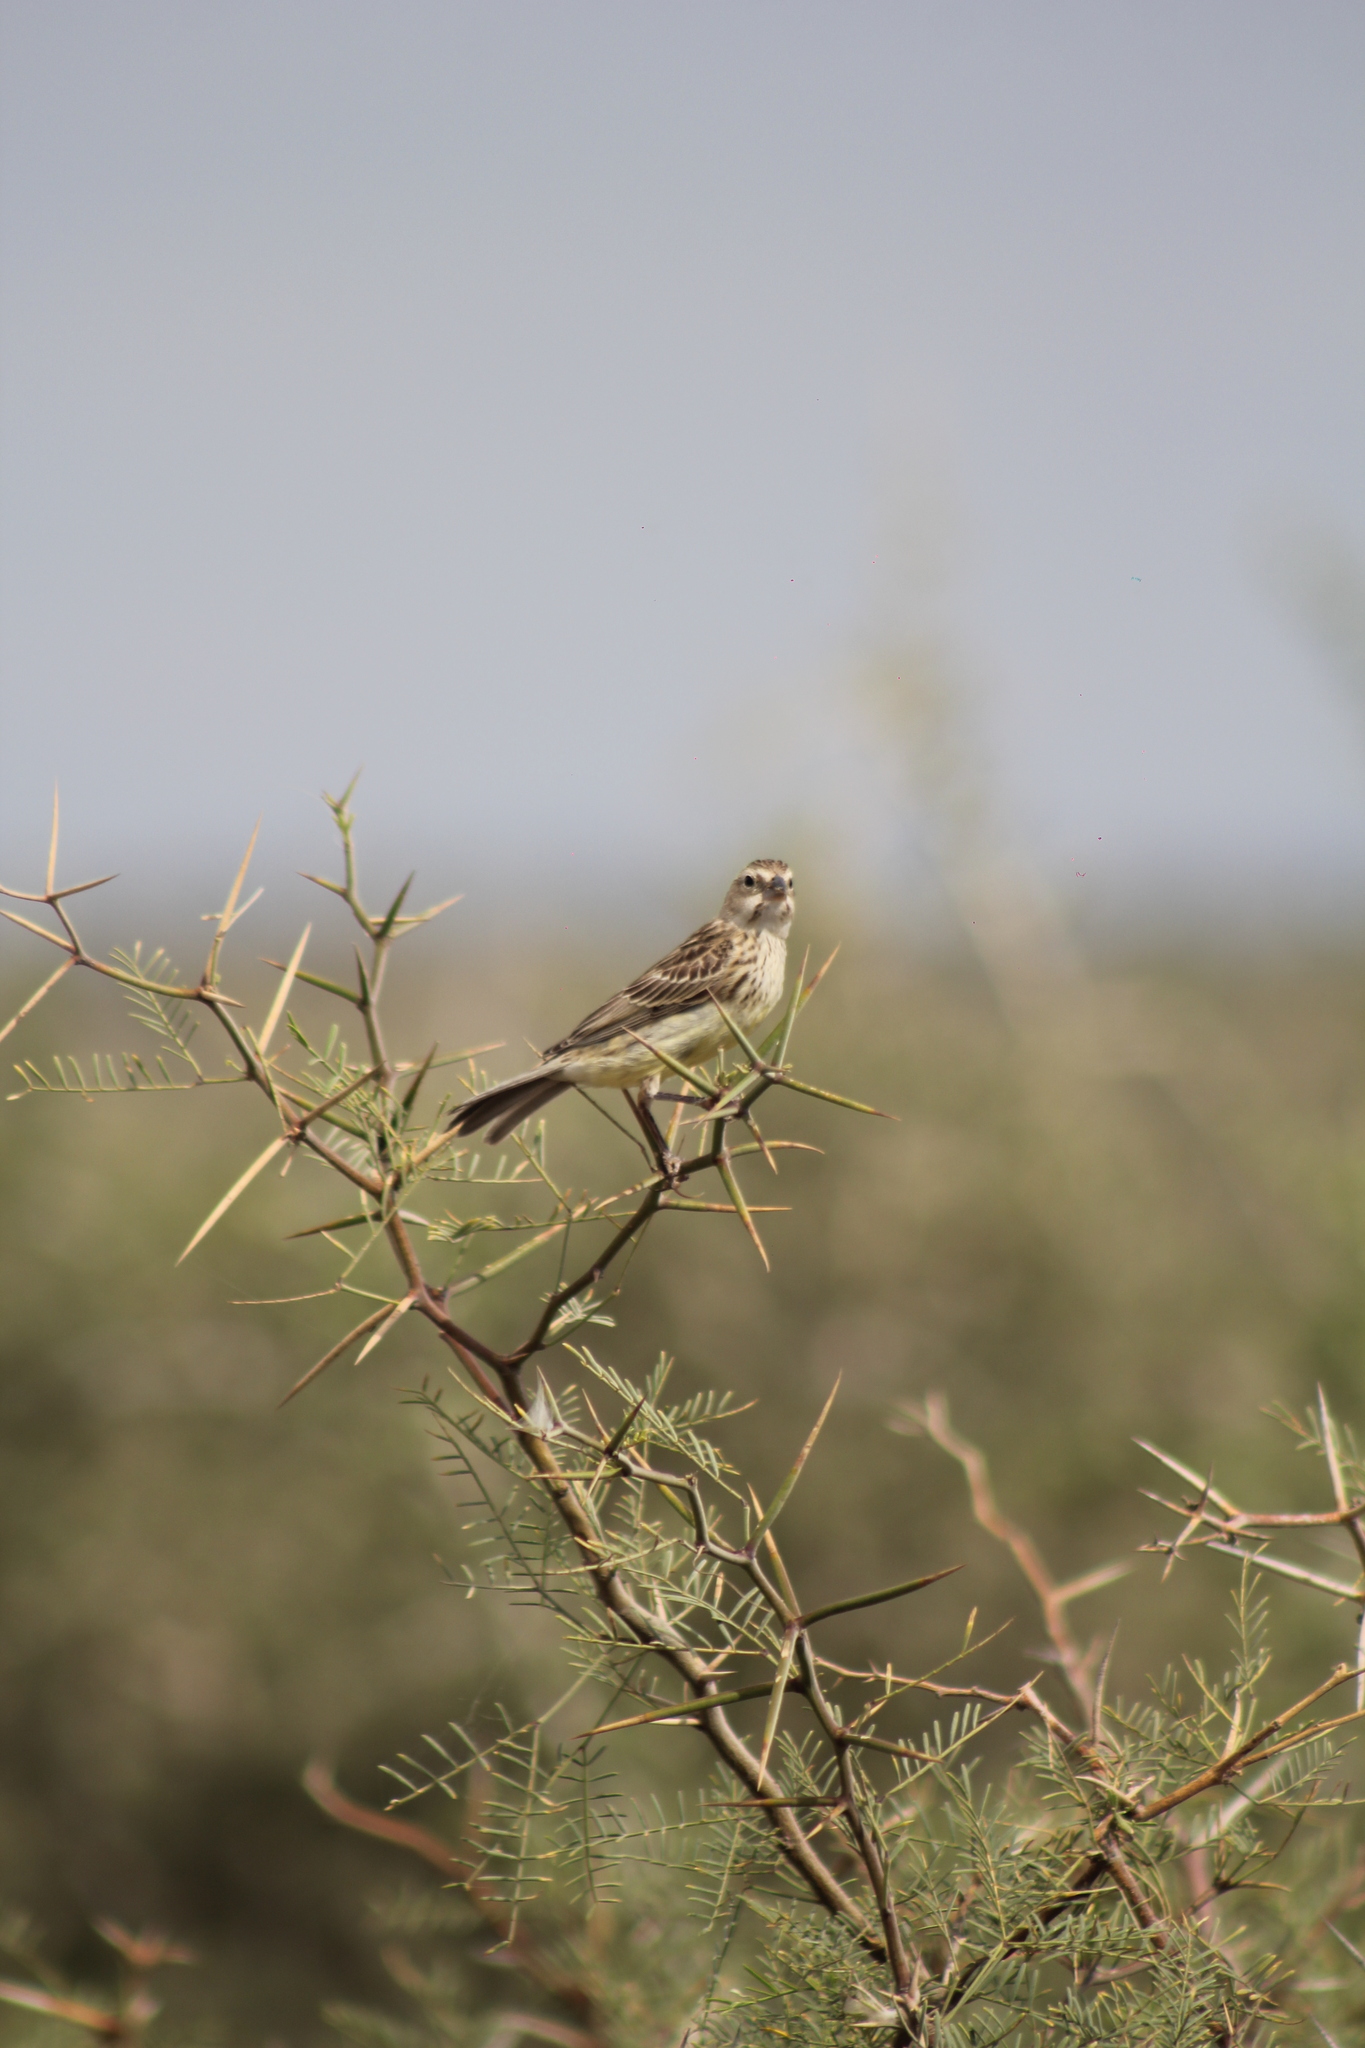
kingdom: Animalia
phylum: Chordata
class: Aves
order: Passeriformes
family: Thraupidae
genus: Sicalis
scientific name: Sicalis luteola
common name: Grassland yellow-finch
